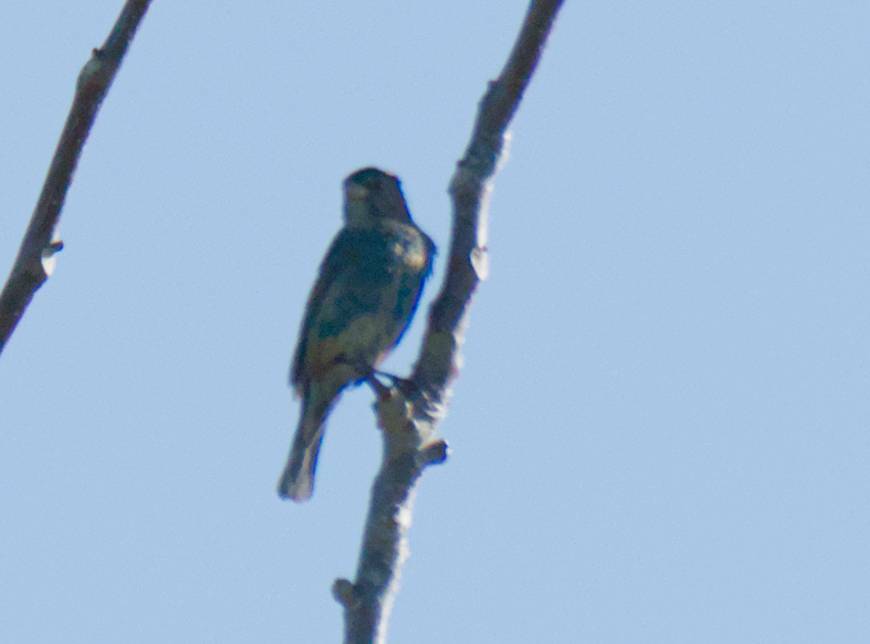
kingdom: Animalia
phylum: Chordata
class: Aves
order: Passeriformes
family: Cardinalidae
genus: Passerina
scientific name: Passerina cyanea
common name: Indigo bunting
